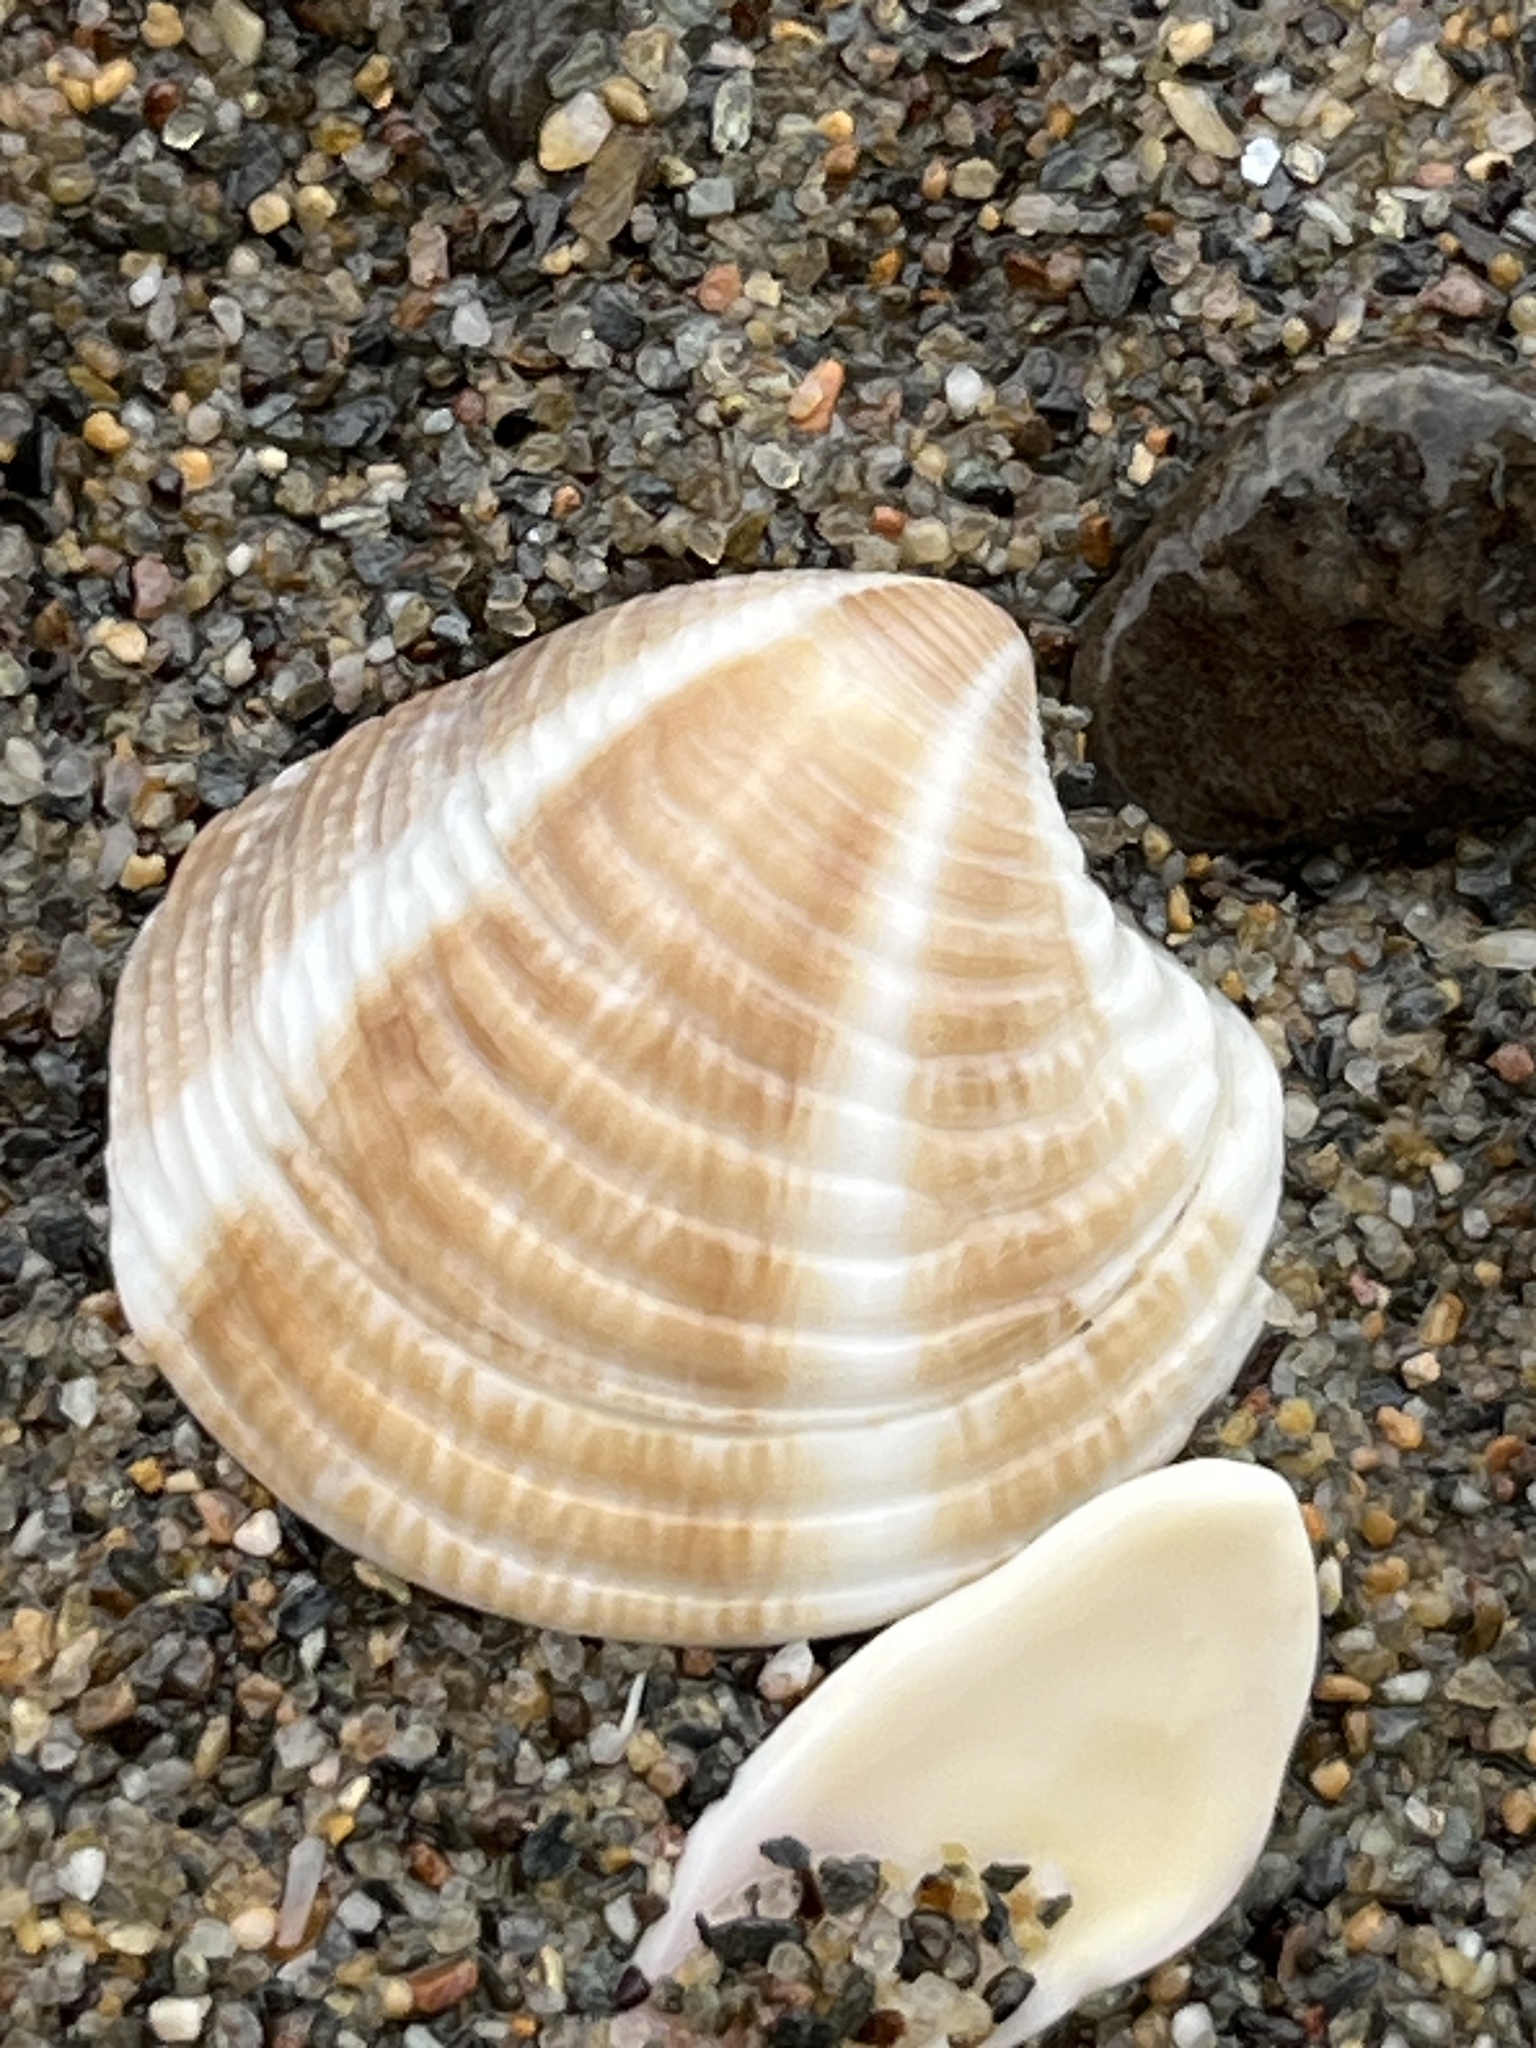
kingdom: Animalia
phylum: Mollusca
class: Bivalvia
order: Venerida
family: Veneridae
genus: Chamelea
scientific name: Chamelea gallina
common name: Chicken venus
